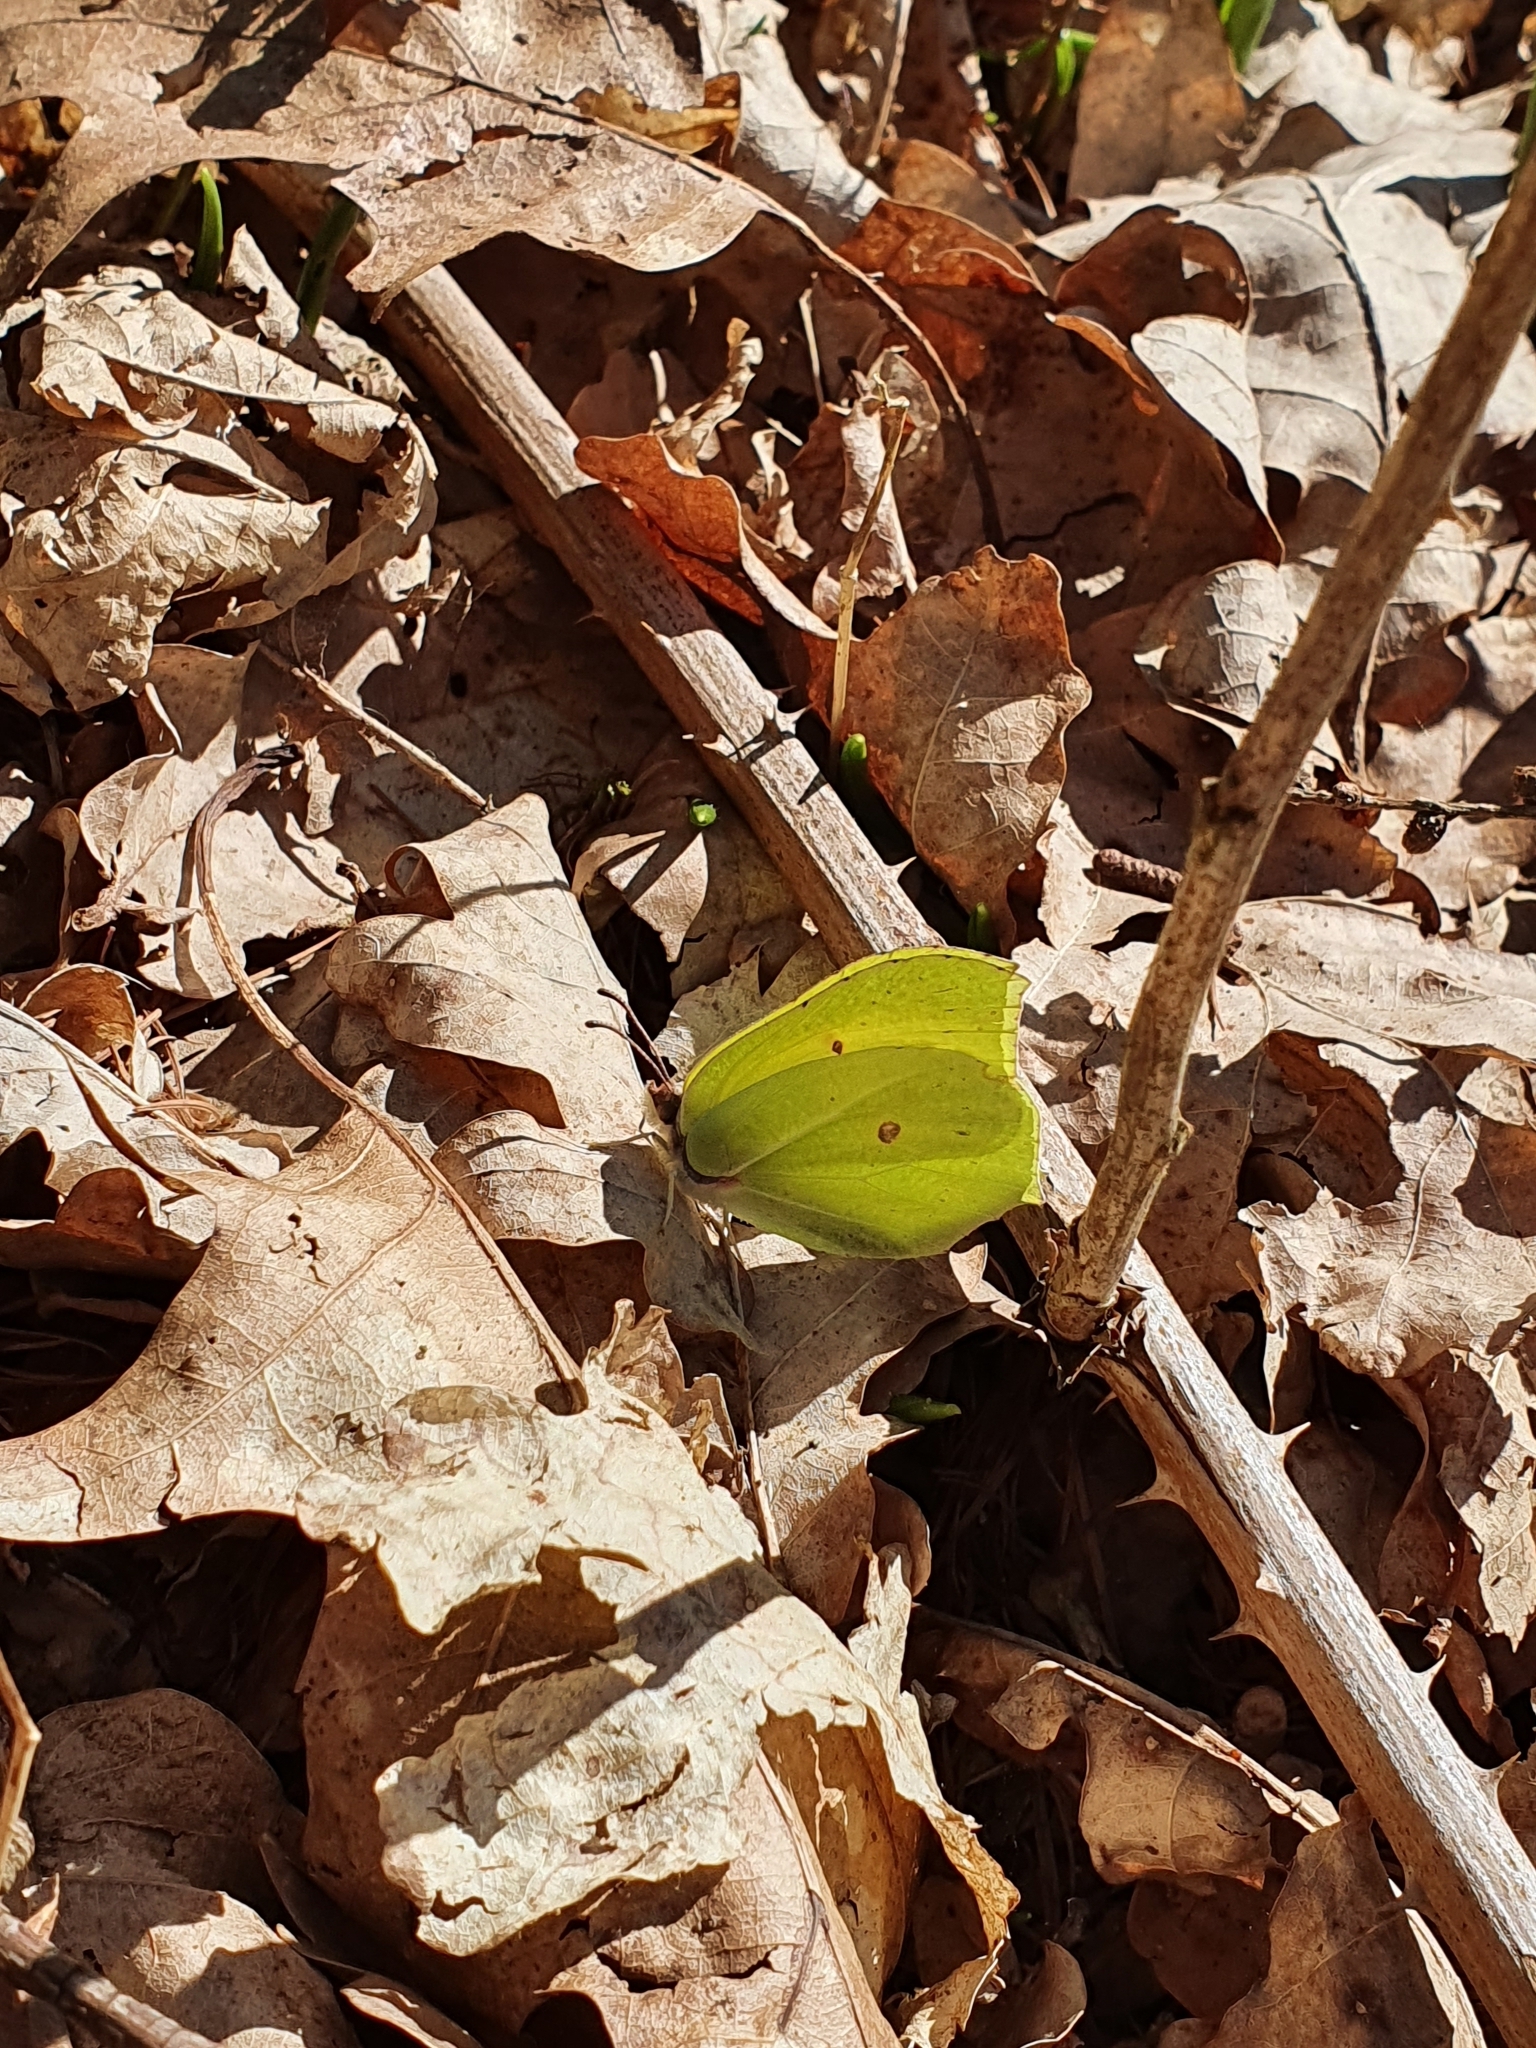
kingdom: Animalia
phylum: Arthropoda
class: Insecta
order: Lepidoptera
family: Pieridae
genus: Gonepteryx
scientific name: Gonepteryx rhamni
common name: Brimstone
